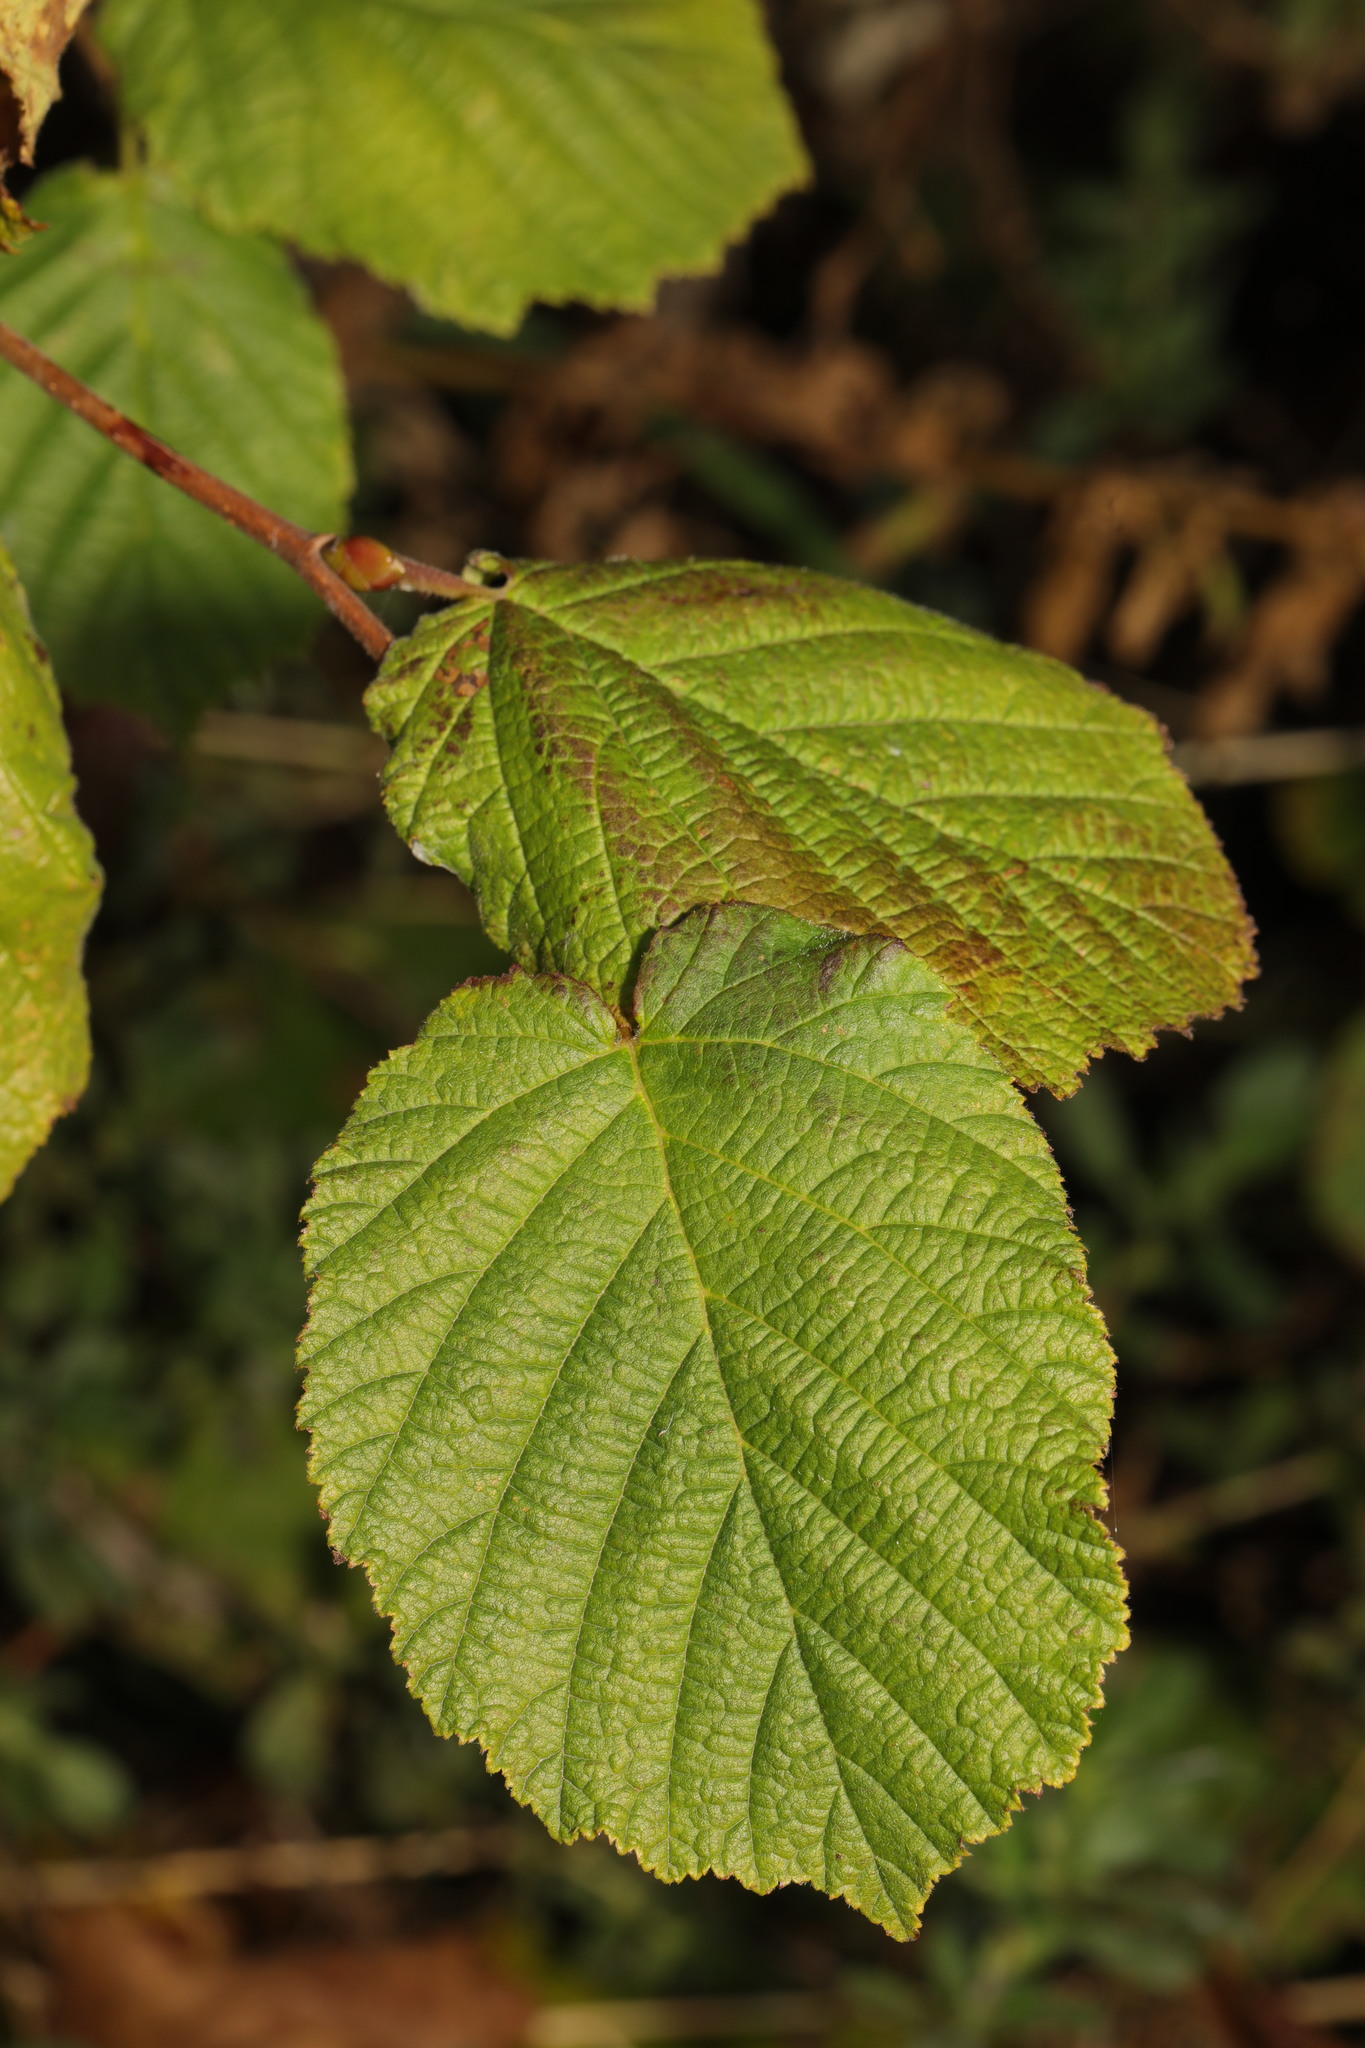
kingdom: Plantae
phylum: Tracheophyta
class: Magnoliopsida
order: Fagales
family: Betulaceae
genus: Corylus
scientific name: Corylus avellana
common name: European hazel
